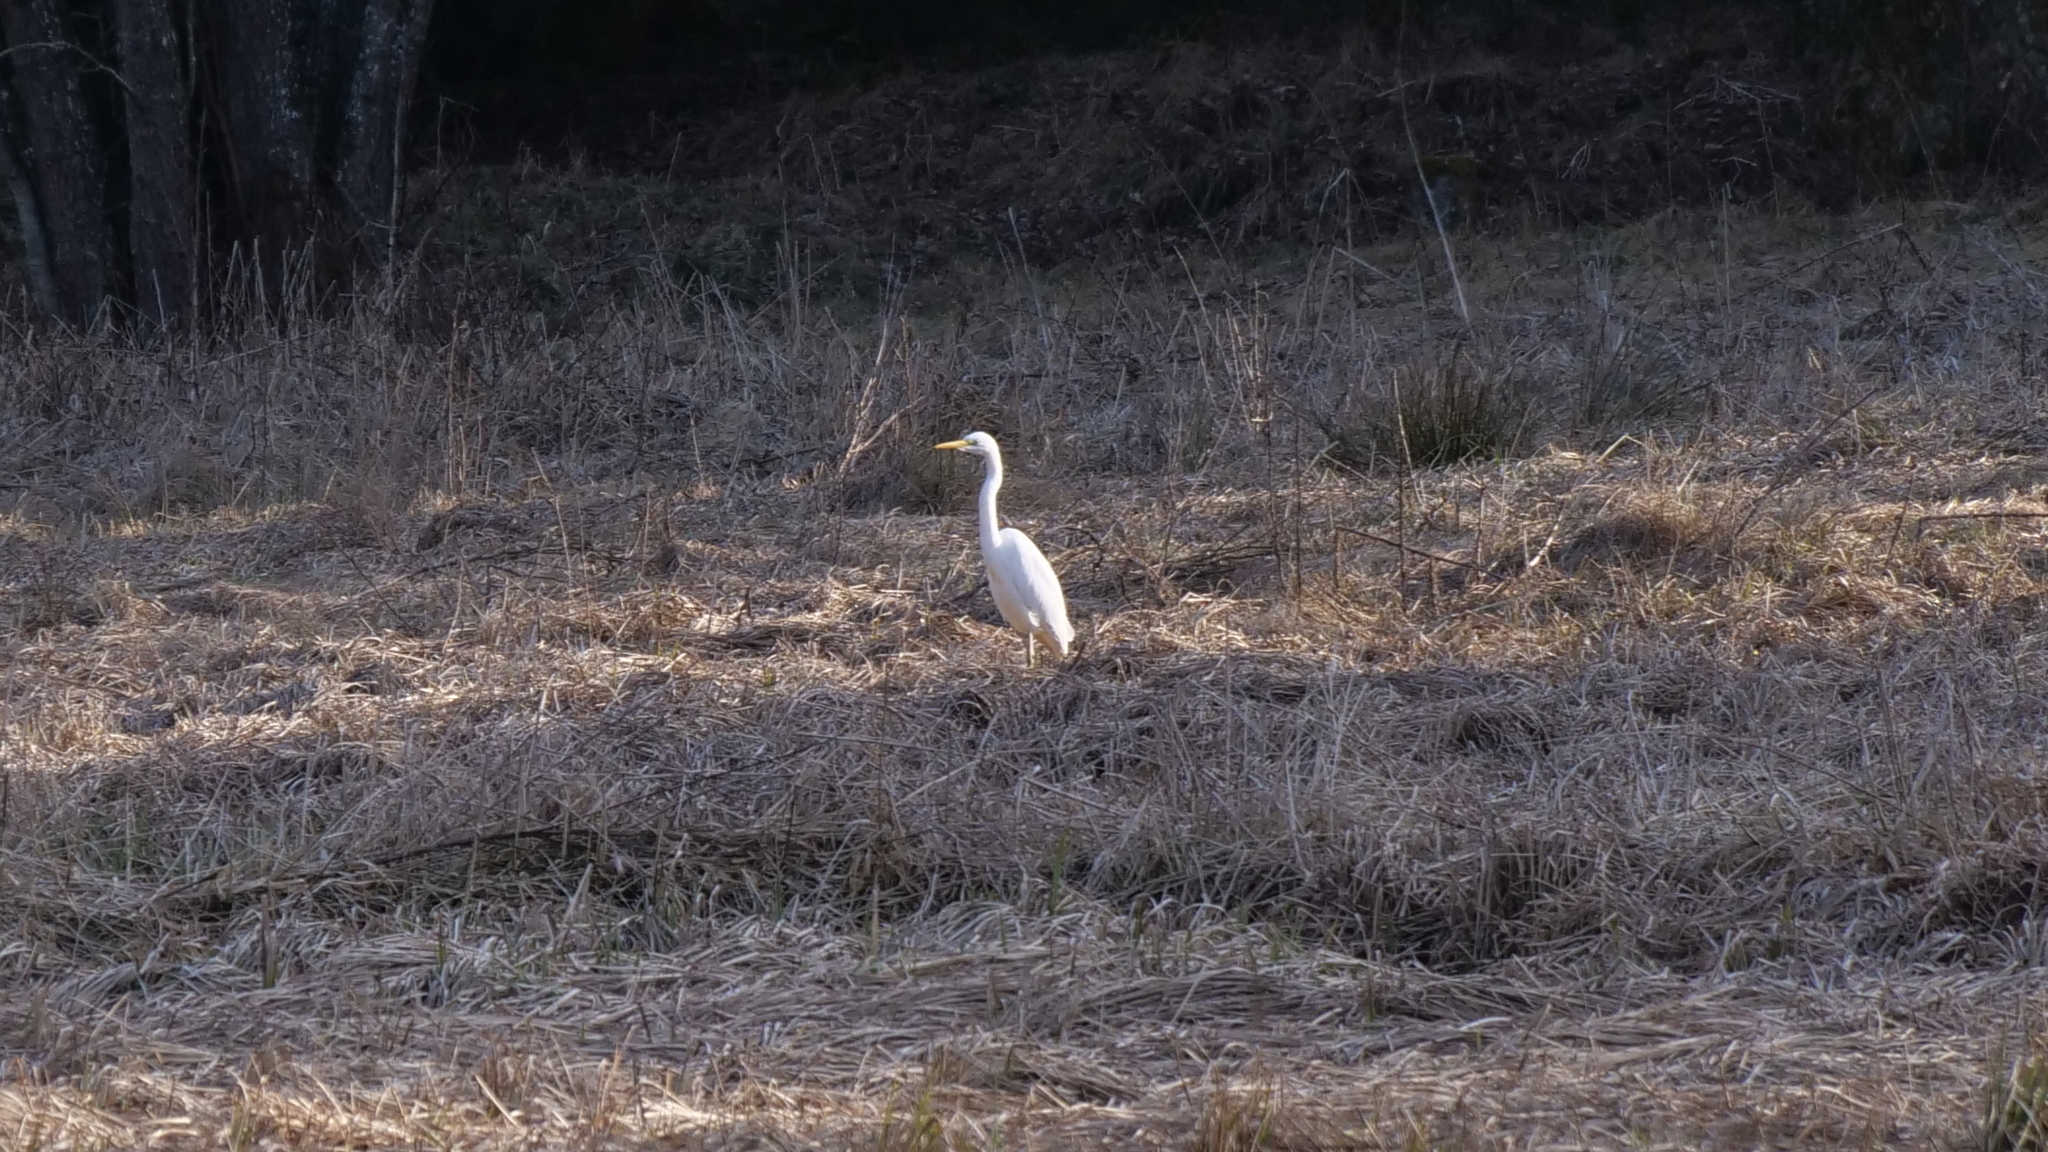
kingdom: Animalia
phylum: Chordata
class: Aves
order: Pelecaniformes
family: Ardeidae
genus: Ardea
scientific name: Ardea alba
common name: Great egret
